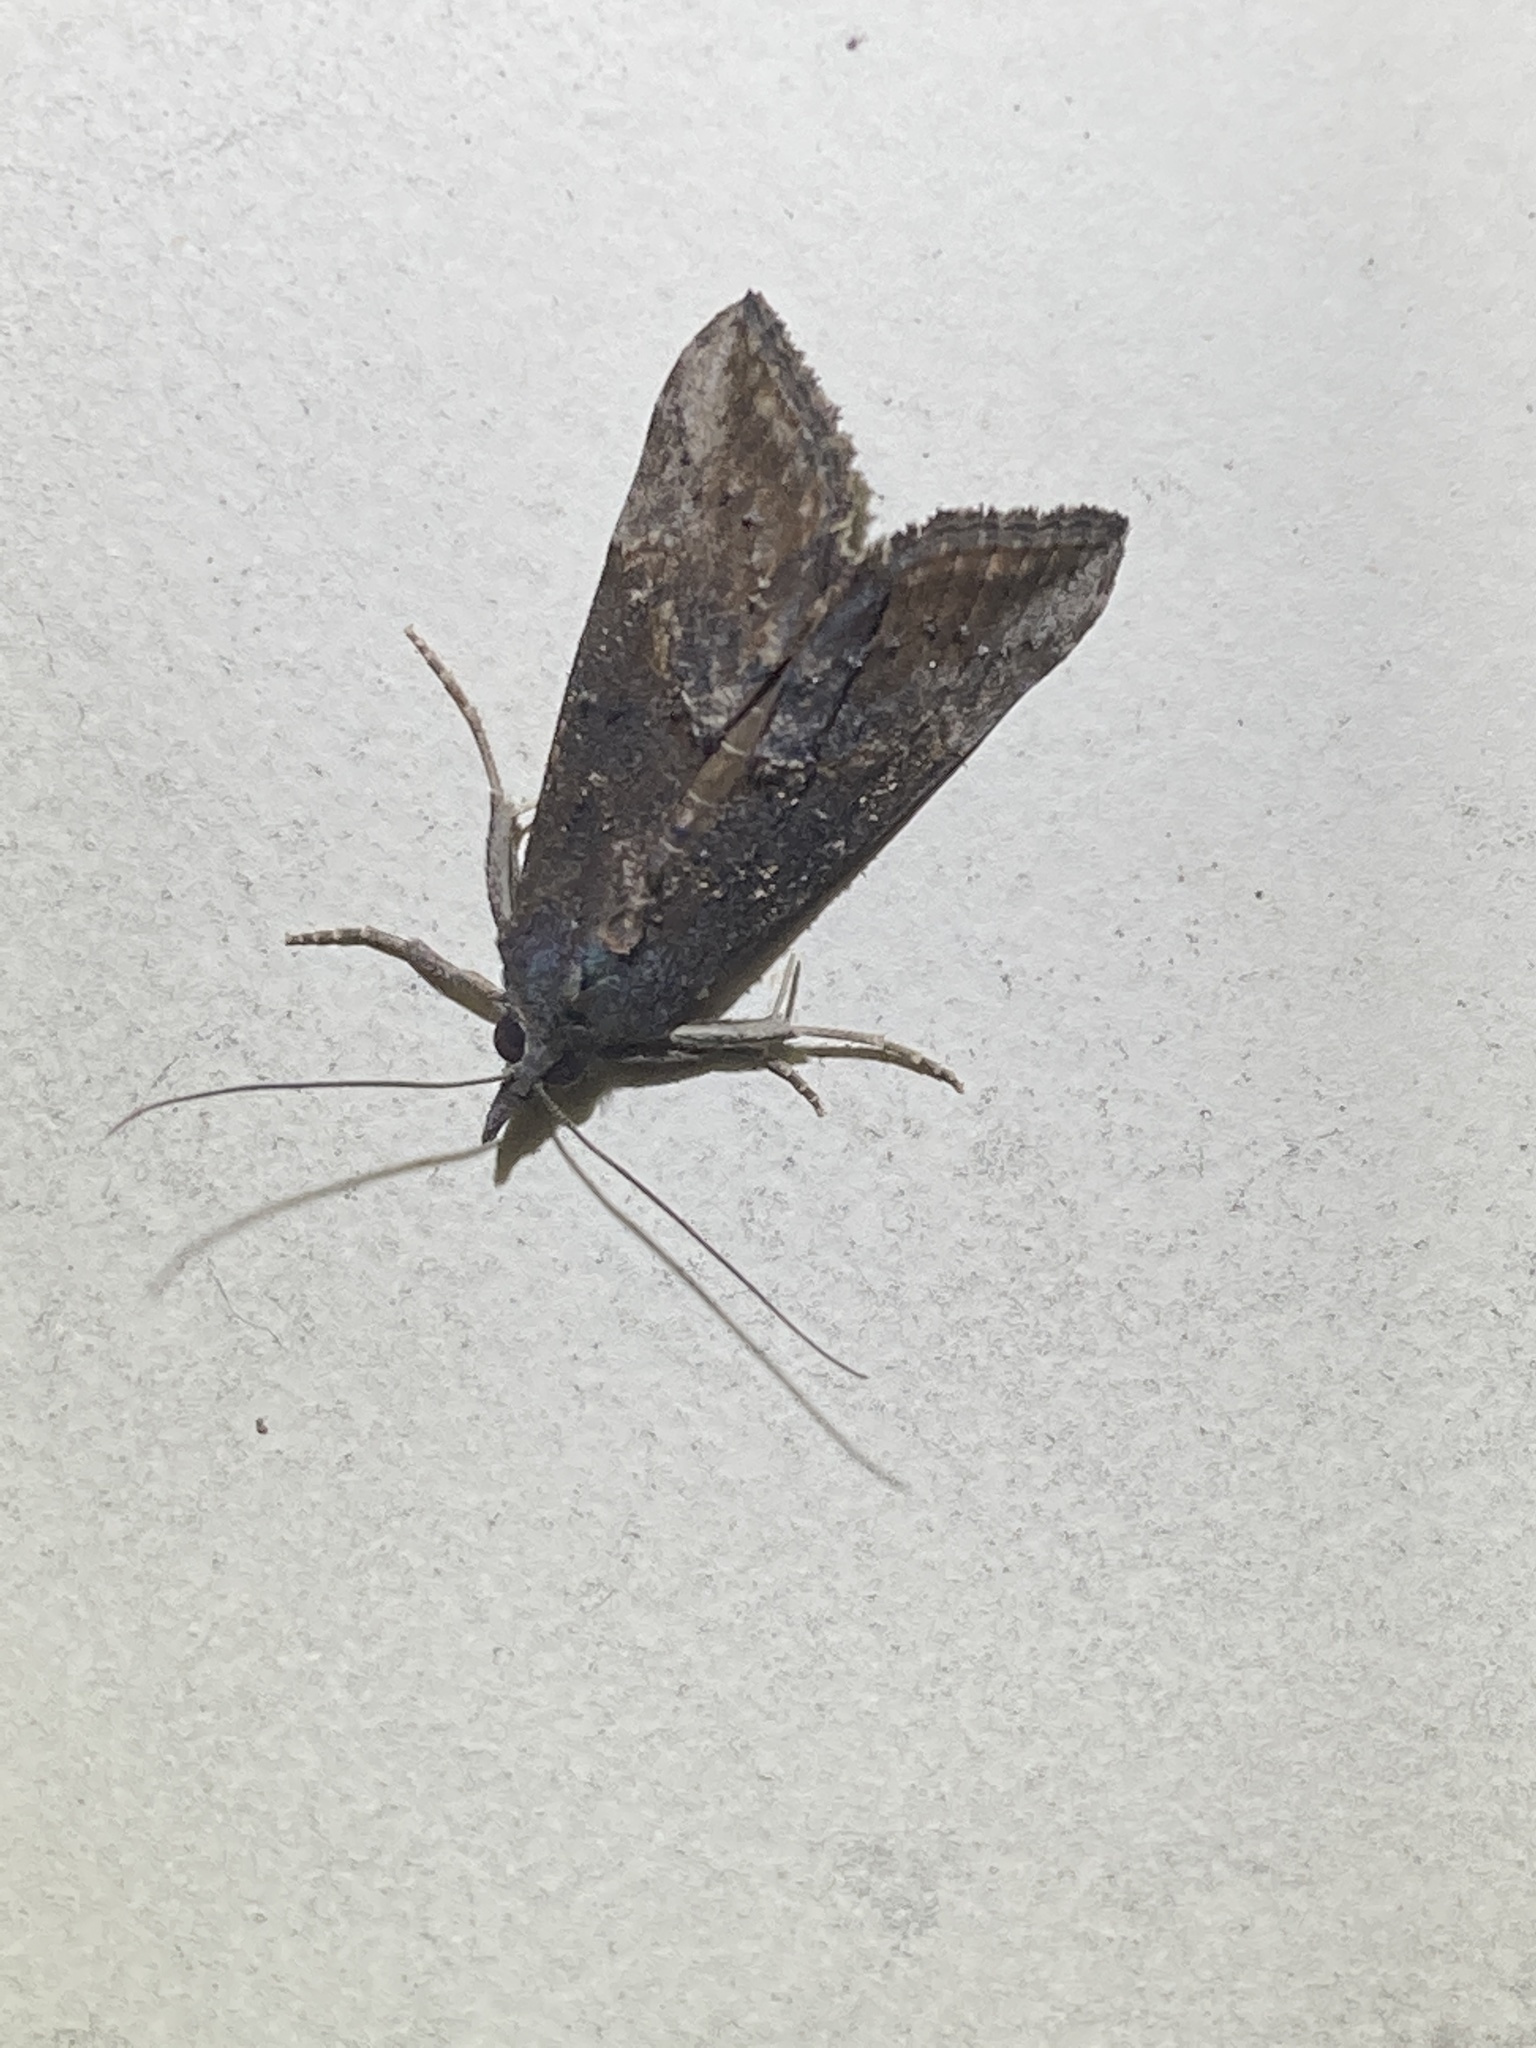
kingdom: Animalia
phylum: Arthropoda
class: Insecta
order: Lepidoptera
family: Erebidae
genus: Hypena
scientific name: Hypena scabra
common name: Green cloverworm
